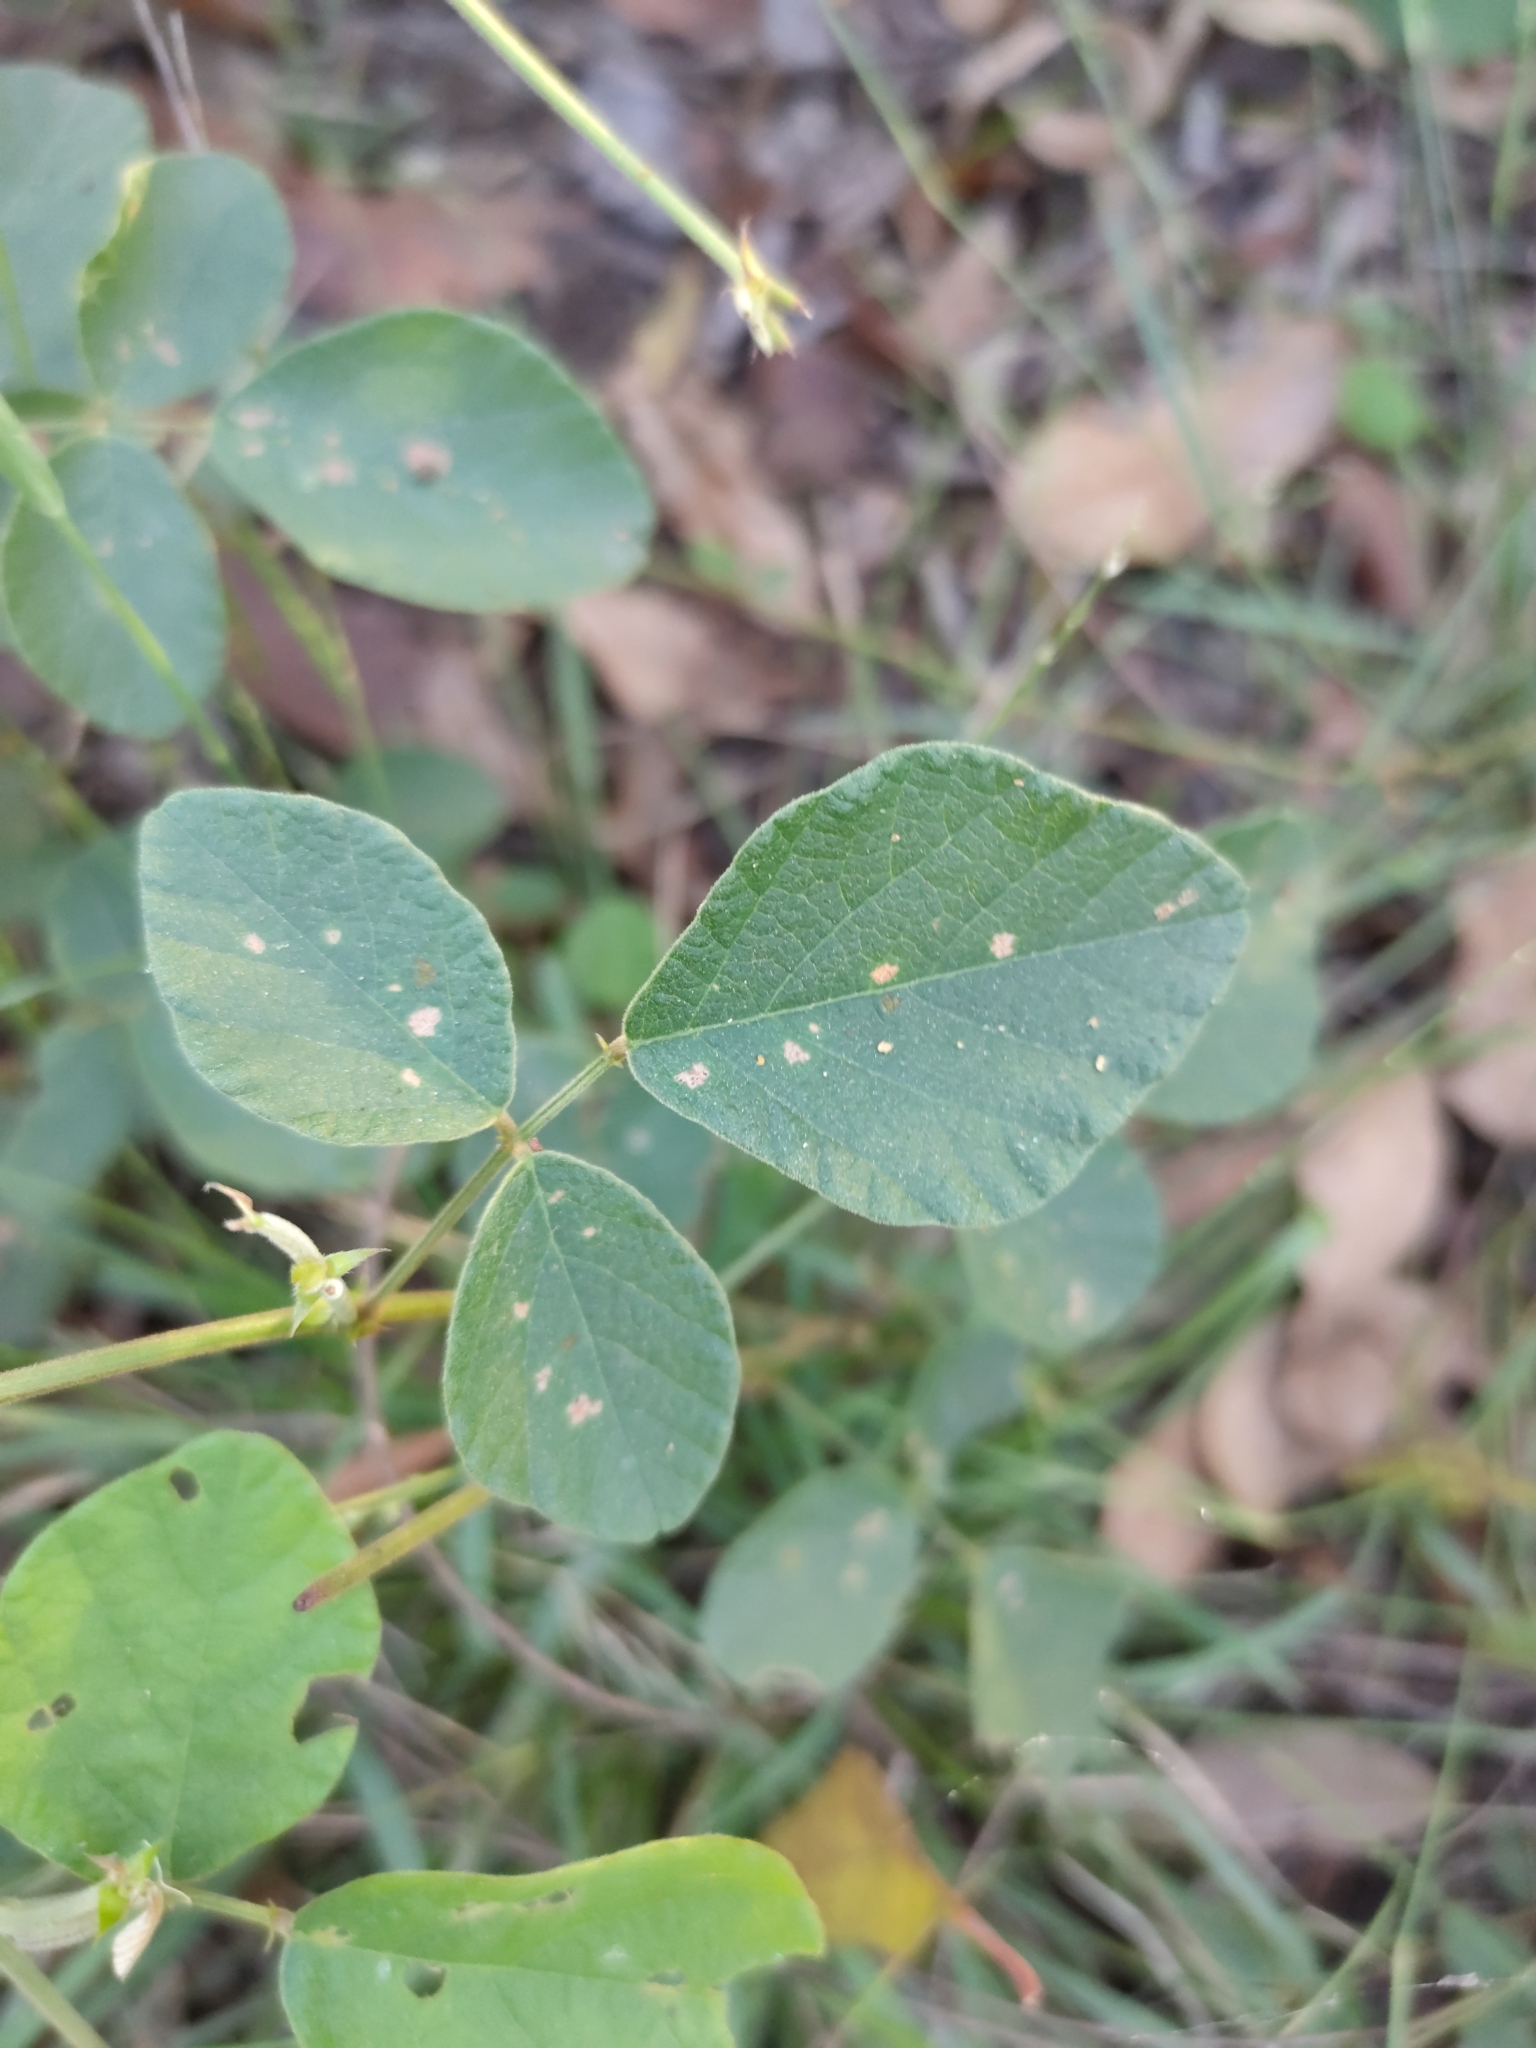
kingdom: Plantae
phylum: Tracheophyta
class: Magnoliopsida
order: Fabales
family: Fabaceae
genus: Maekawaea
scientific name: Maekawaea rhytidophylla
